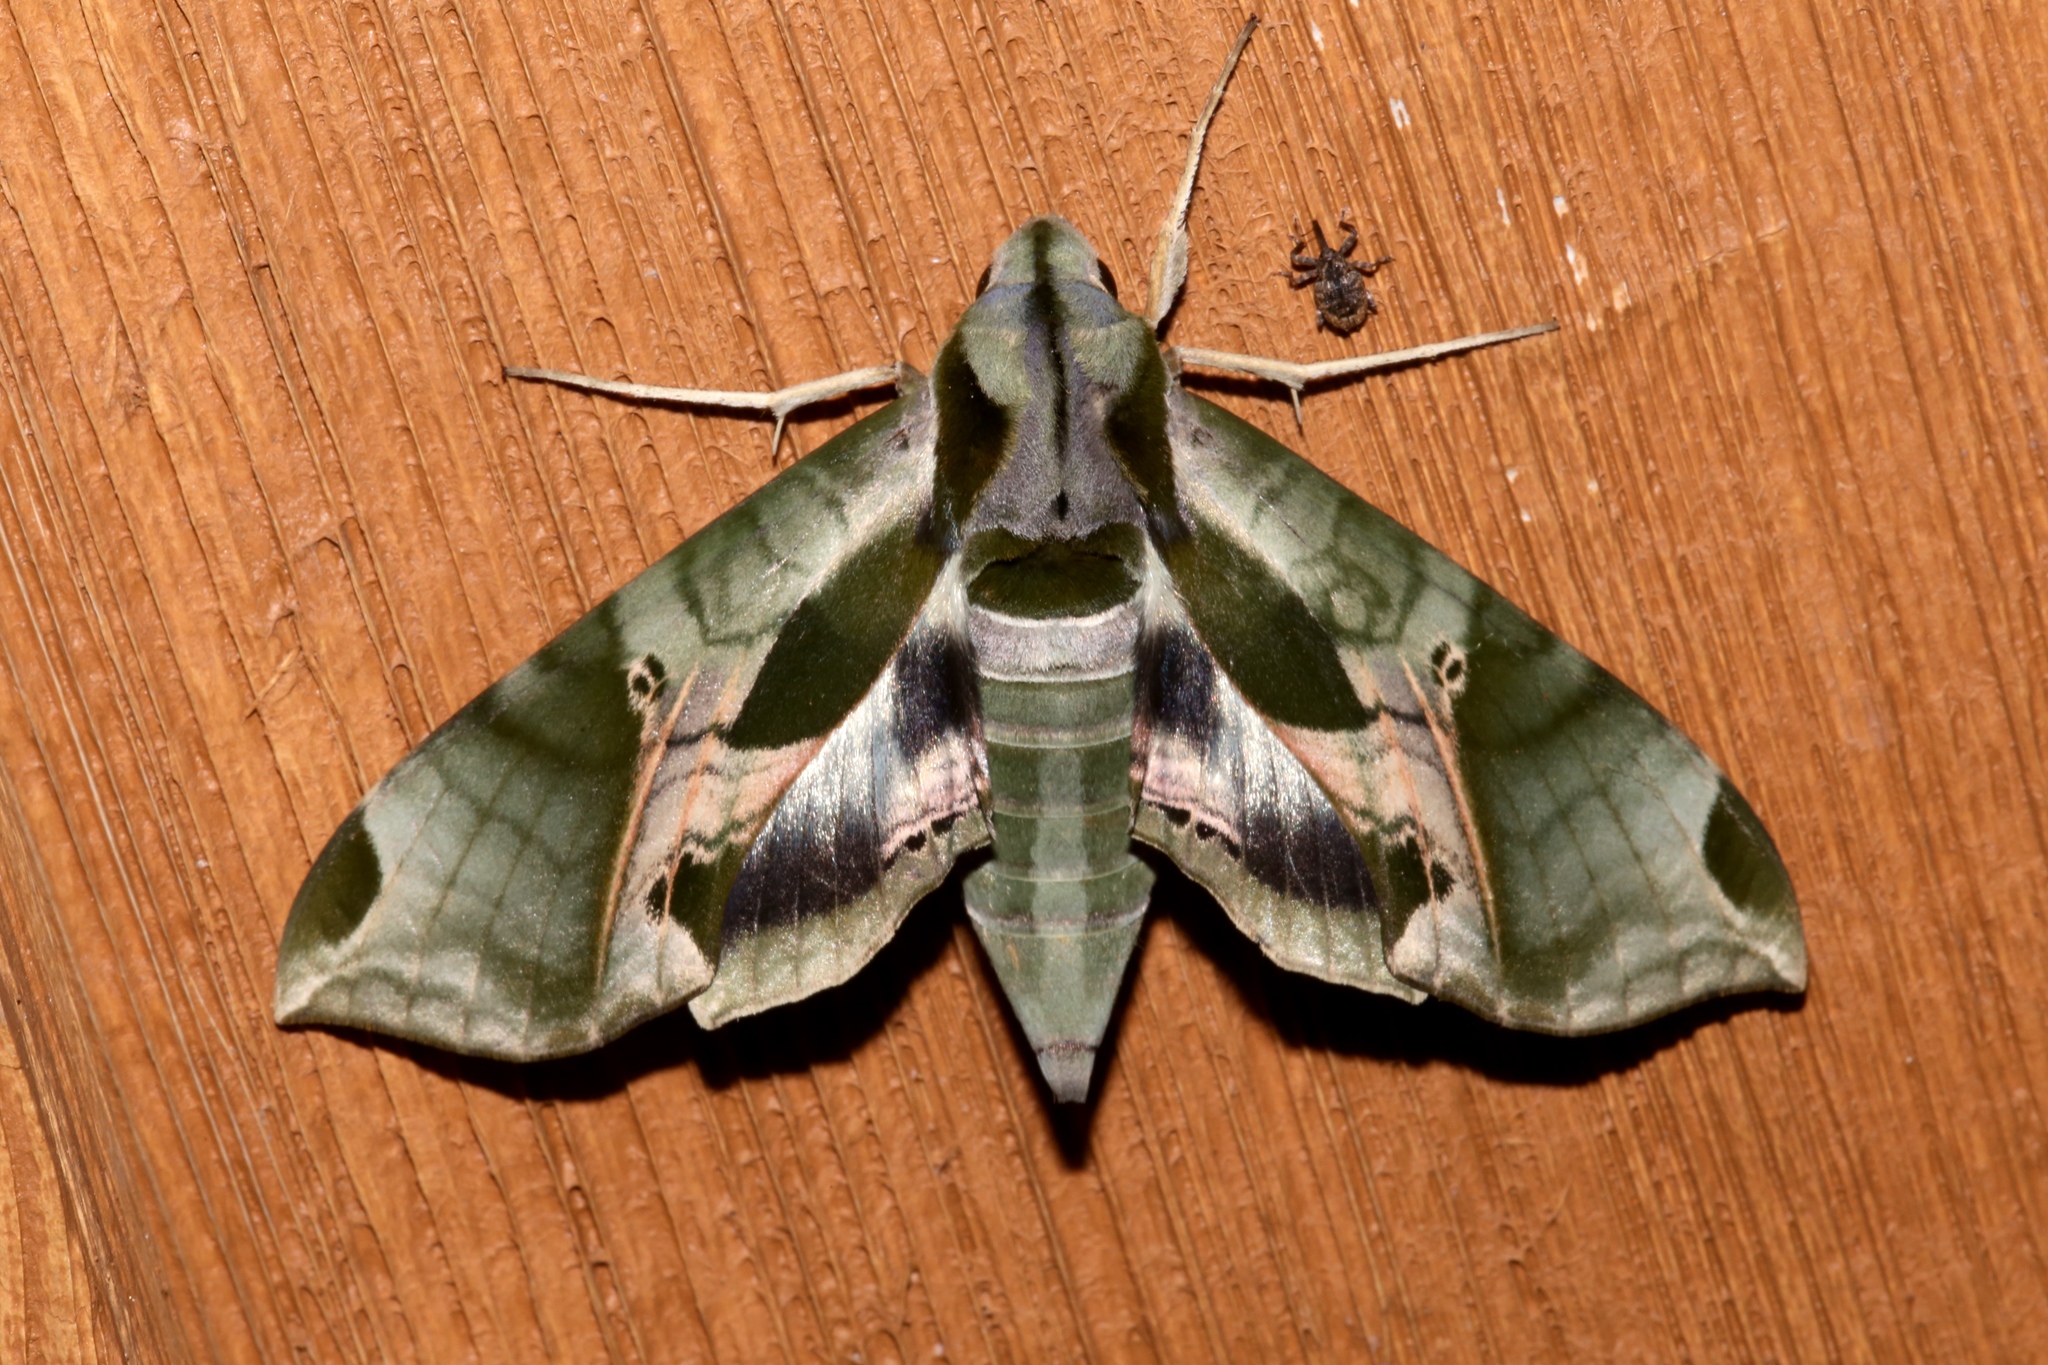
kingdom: Animalia
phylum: Arthropoda
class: Insecta
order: Lepidoptera
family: Sphingidae
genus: Eumorpha
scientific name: Eumorpha pandorus
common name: Pandora sphinx
